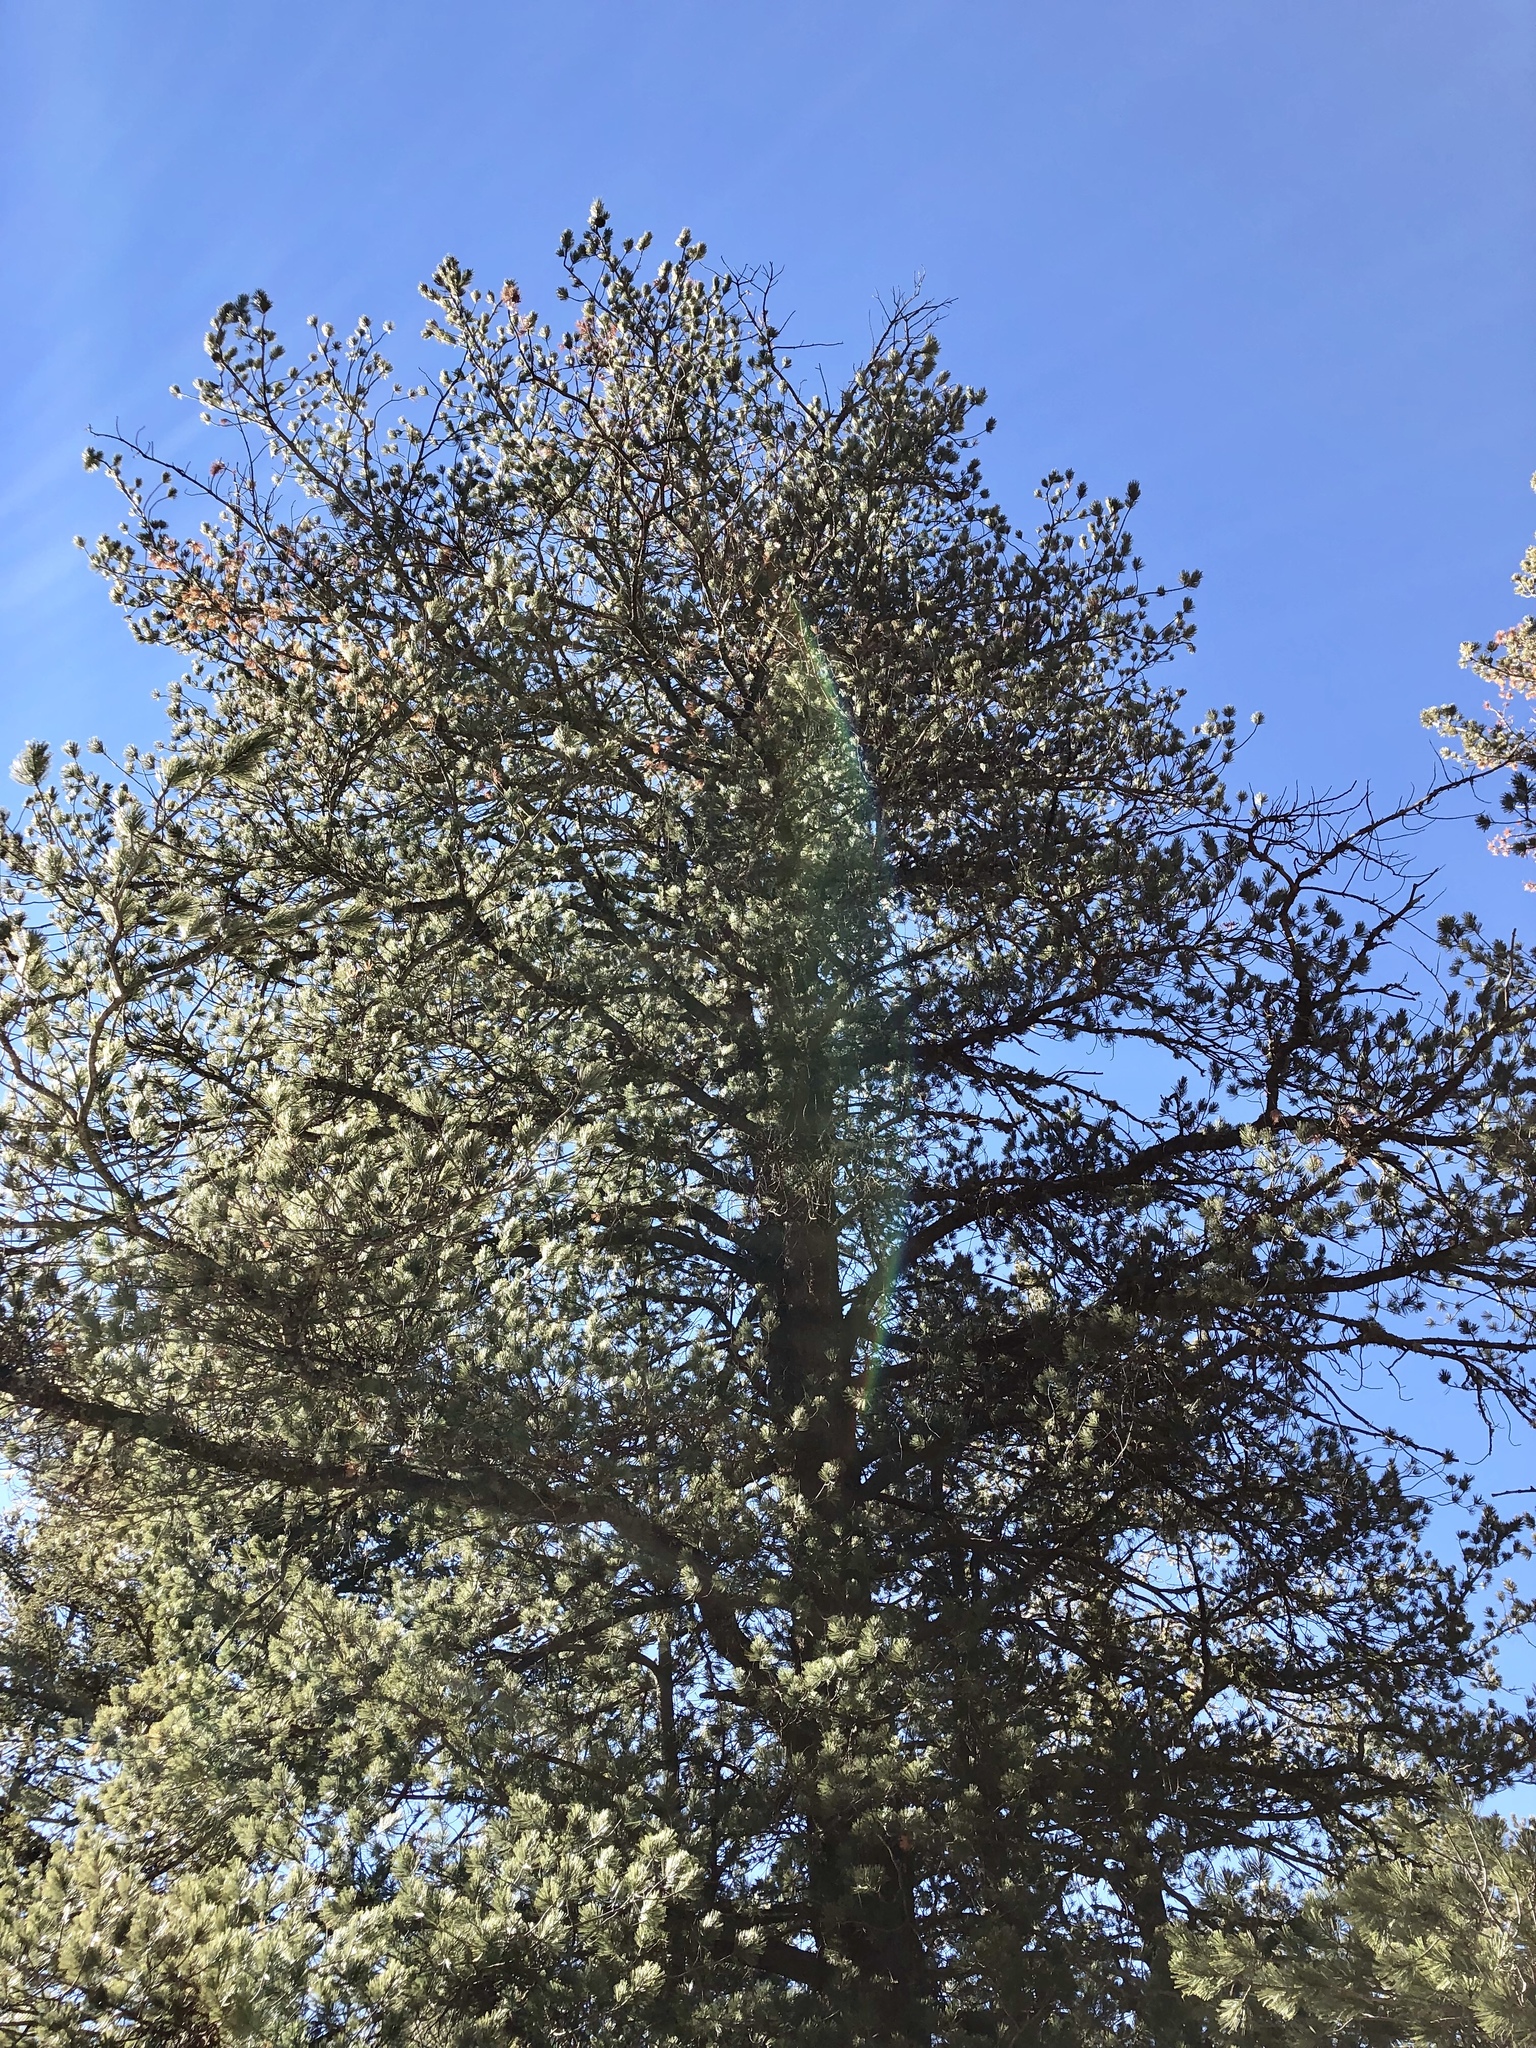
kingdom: Plantae
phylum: Tracheophyta
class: Pinopsida
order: Pinales
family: Pinaceae
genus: Pinus
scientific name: Pinus strobiformis
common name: Southwestern white pine
